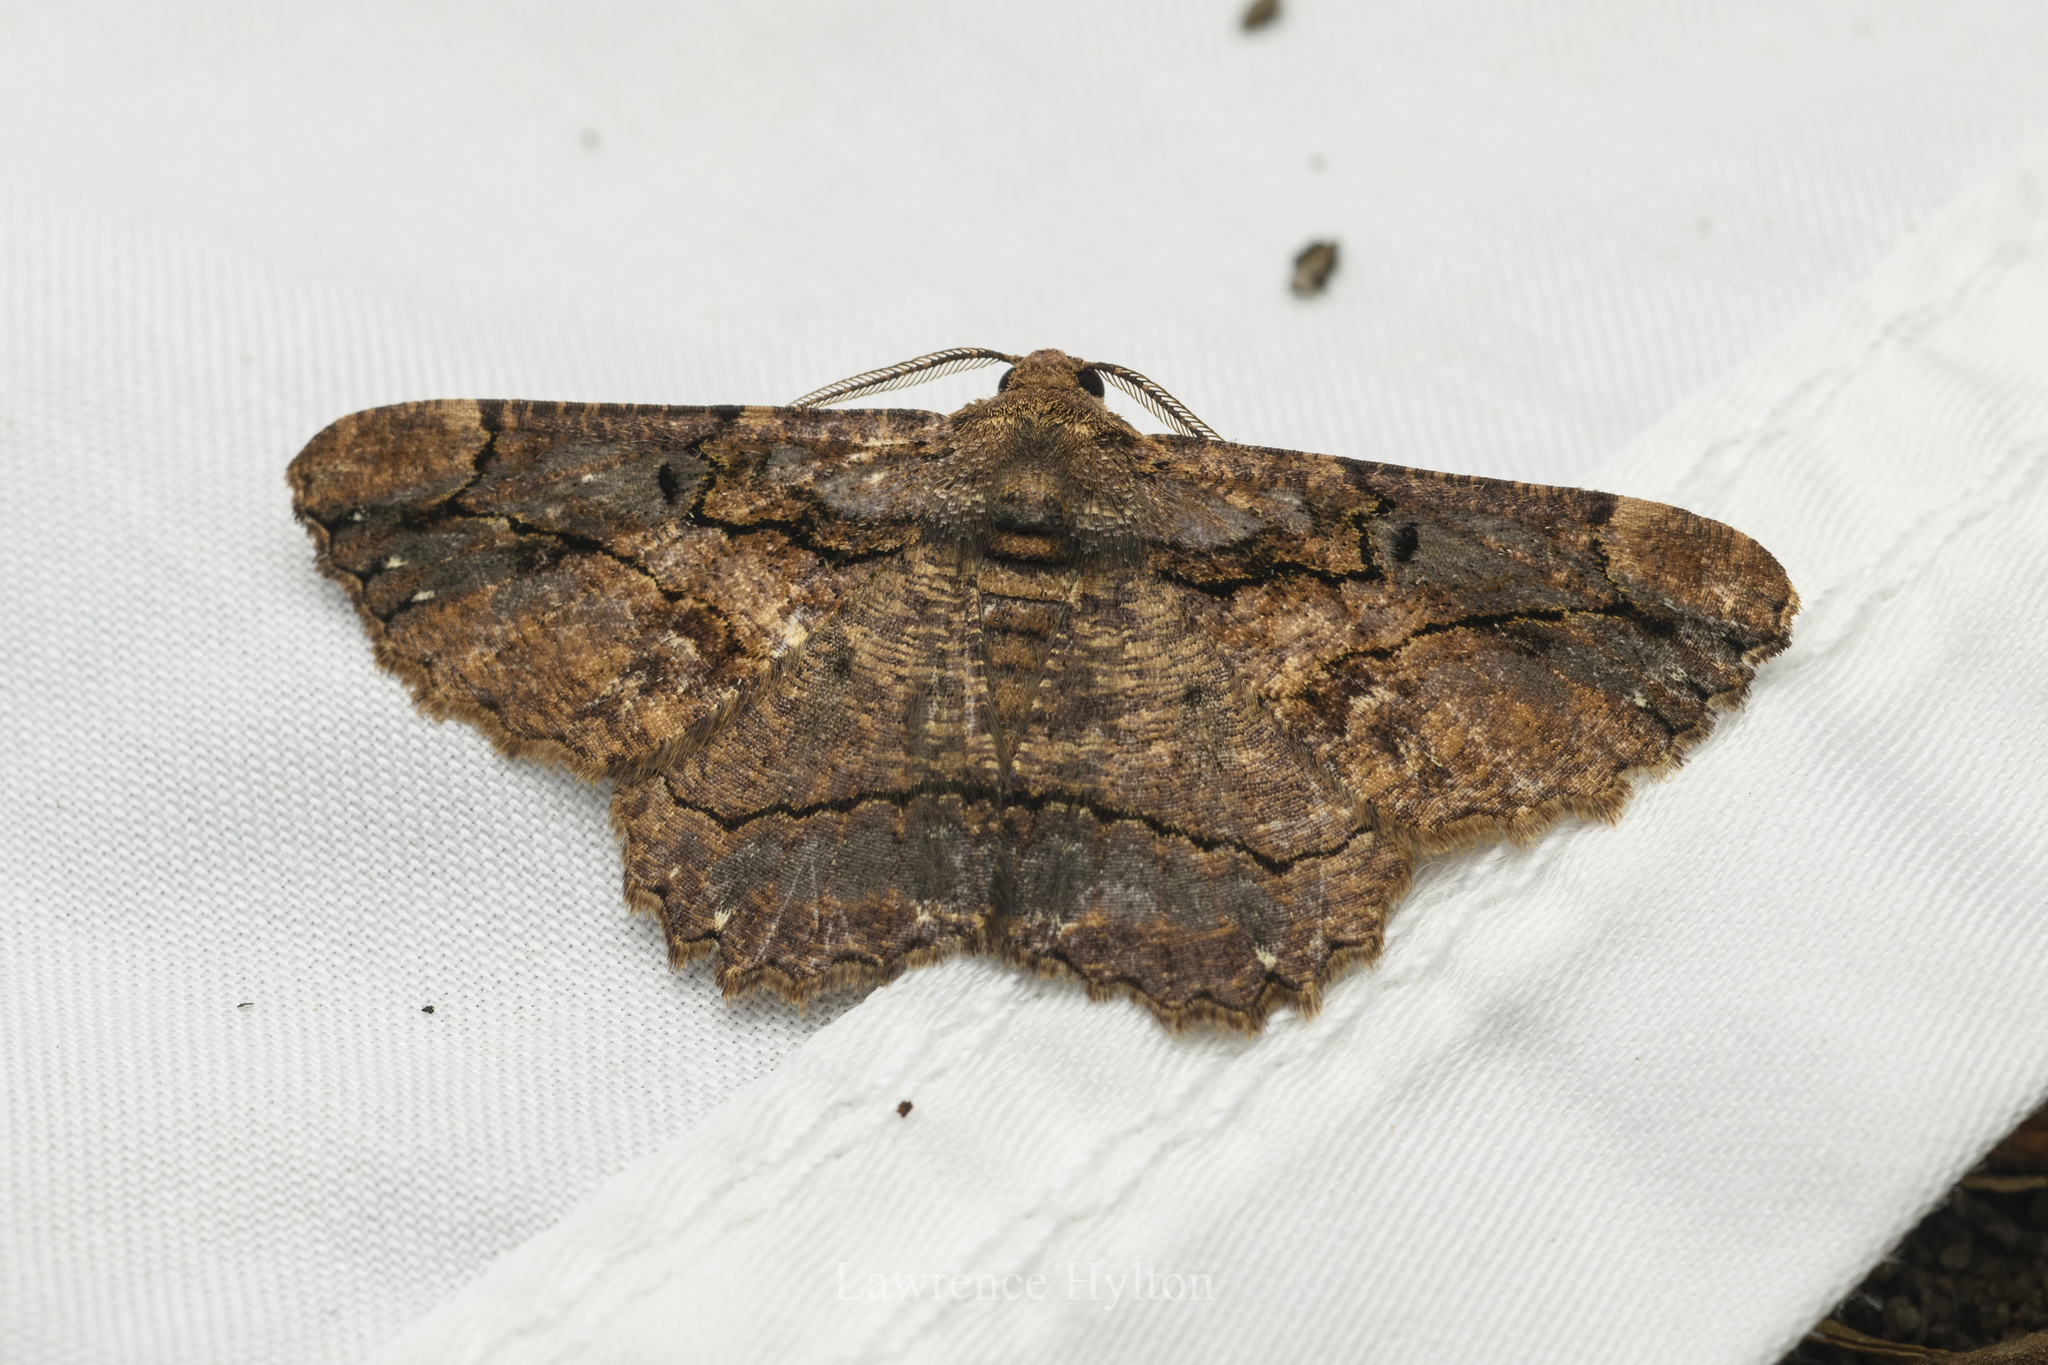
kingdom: Animalia
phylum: Arthropoda
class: Insecta
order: Lepidoptera
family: Geometridae
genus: Dasyboarmia
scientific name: Dasyboarmia subpilosa
